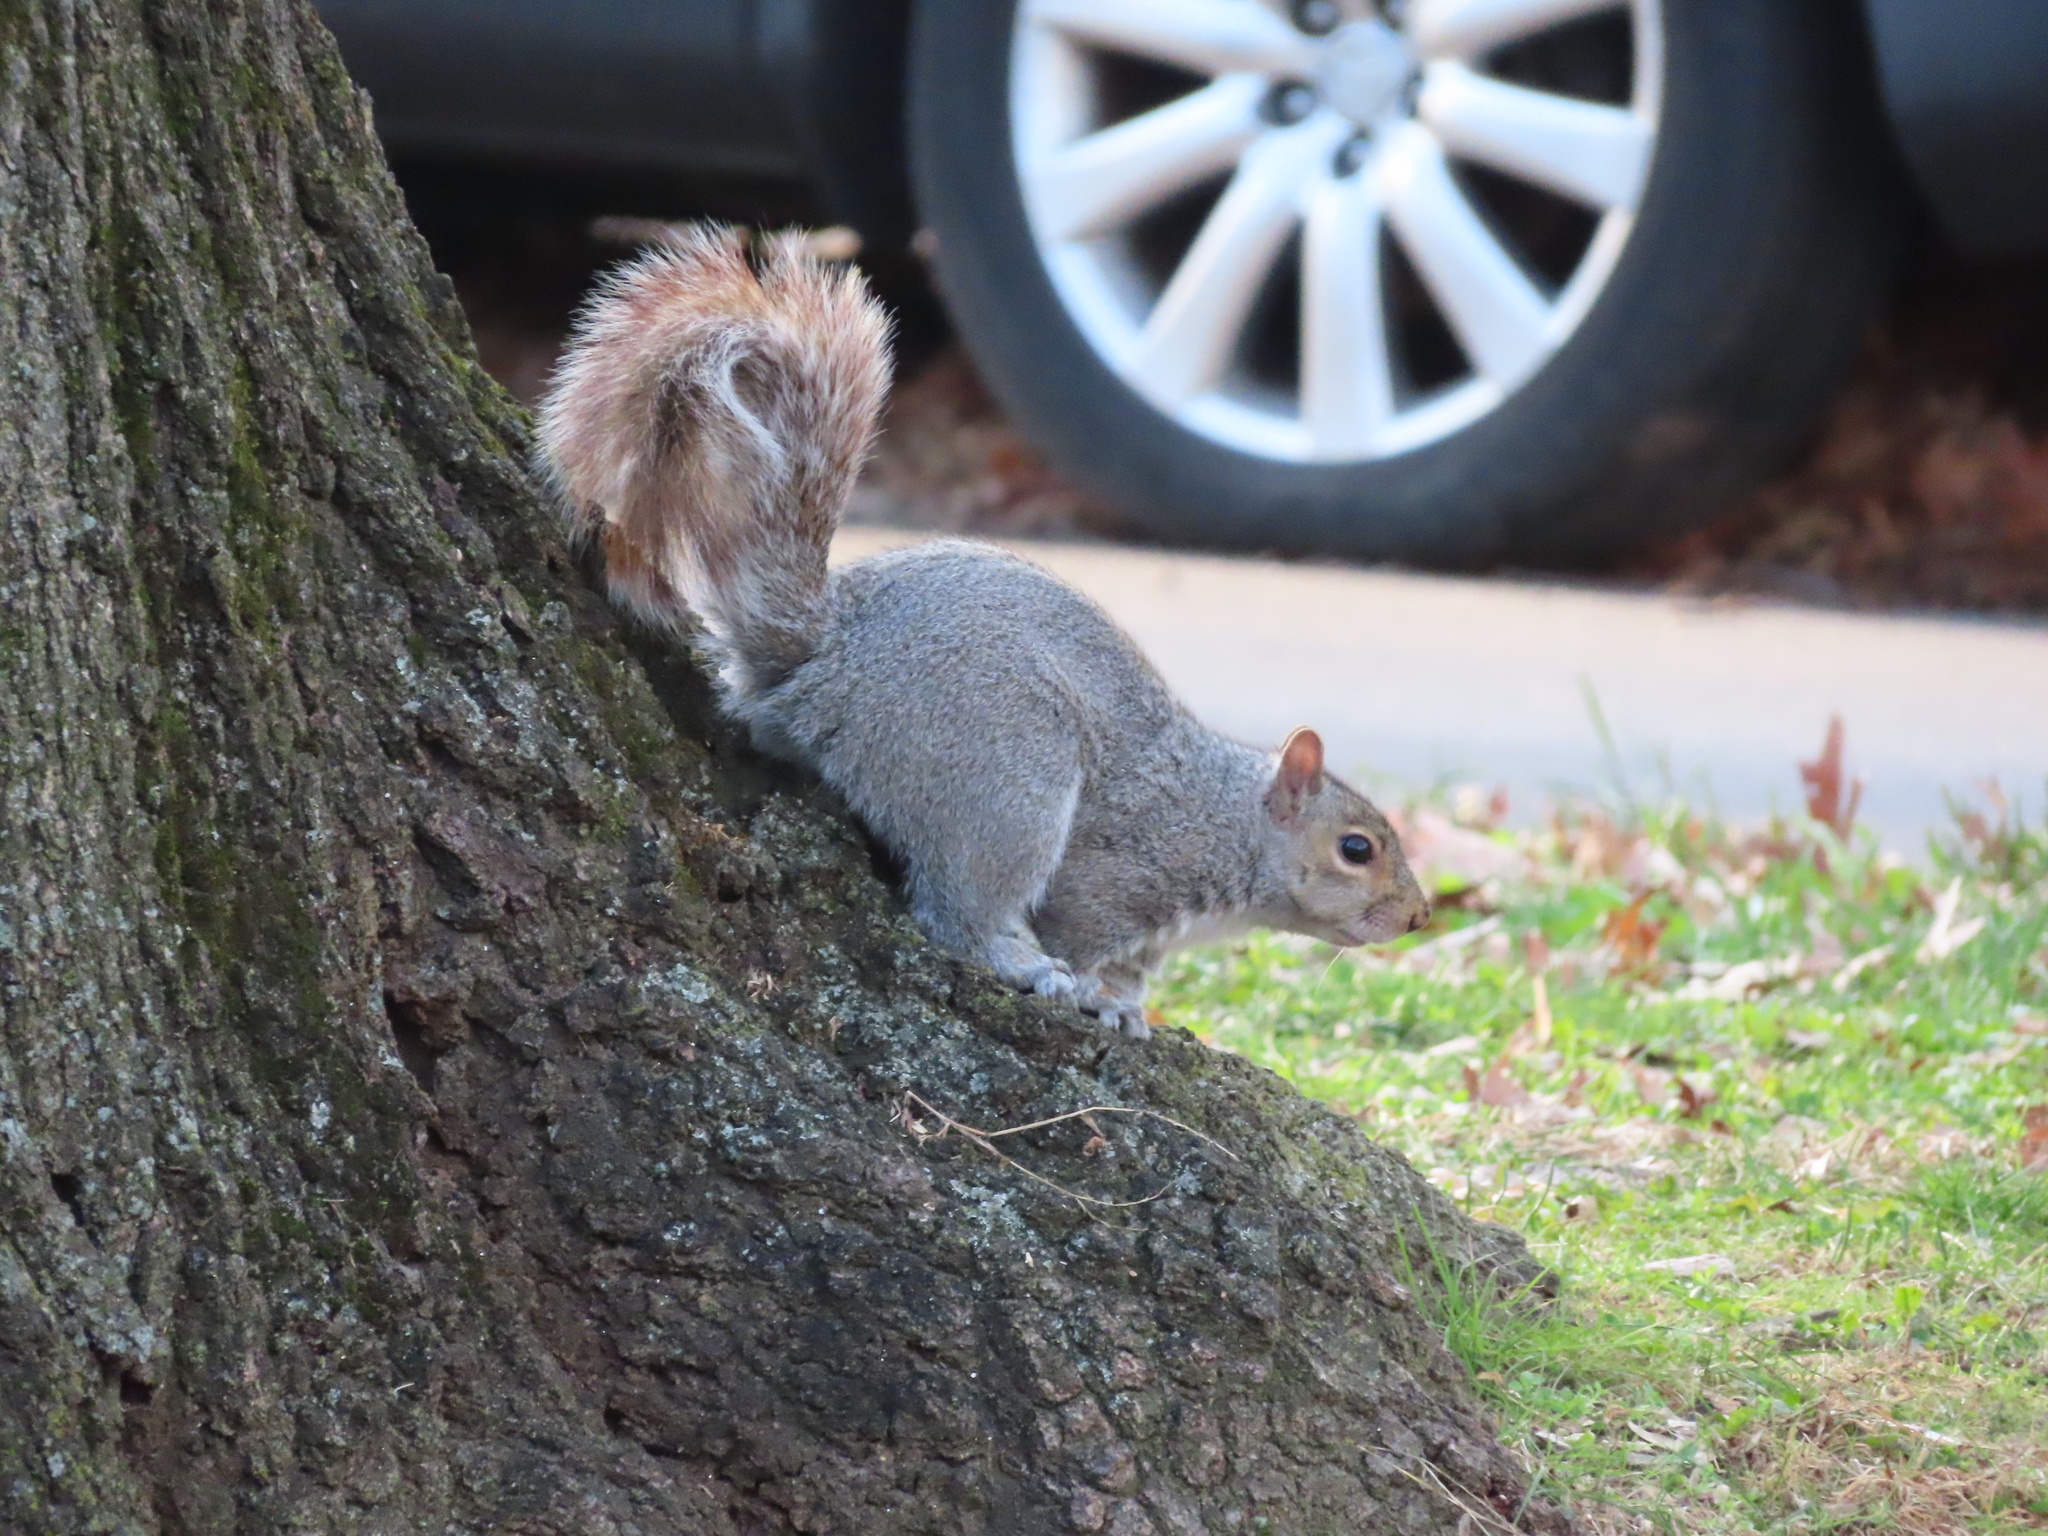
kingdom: Animalia
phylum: Chordata
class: Mammalia
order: Rodentia
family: Sciuridae
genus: Sciurus
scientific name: Sciurus carolinensis
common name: Eastern gray squirrel
